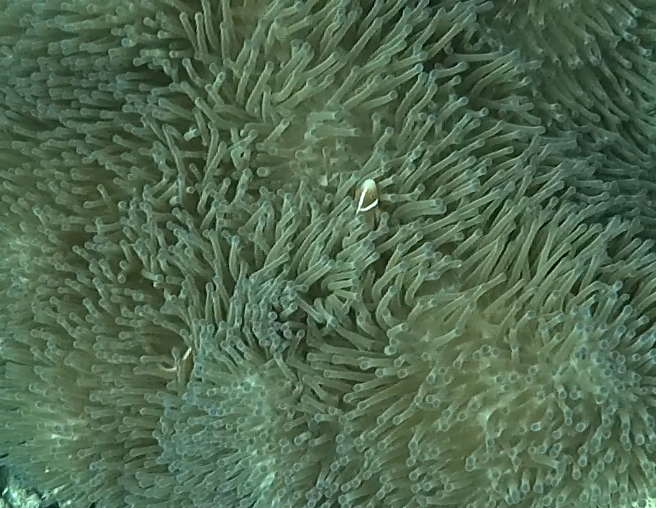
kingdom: Animalia
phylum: Chordata
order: Perciformes
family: Pomacentridae
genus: Amphiprion
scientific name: Amphiprion perideraion
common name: Pink anemonefish
